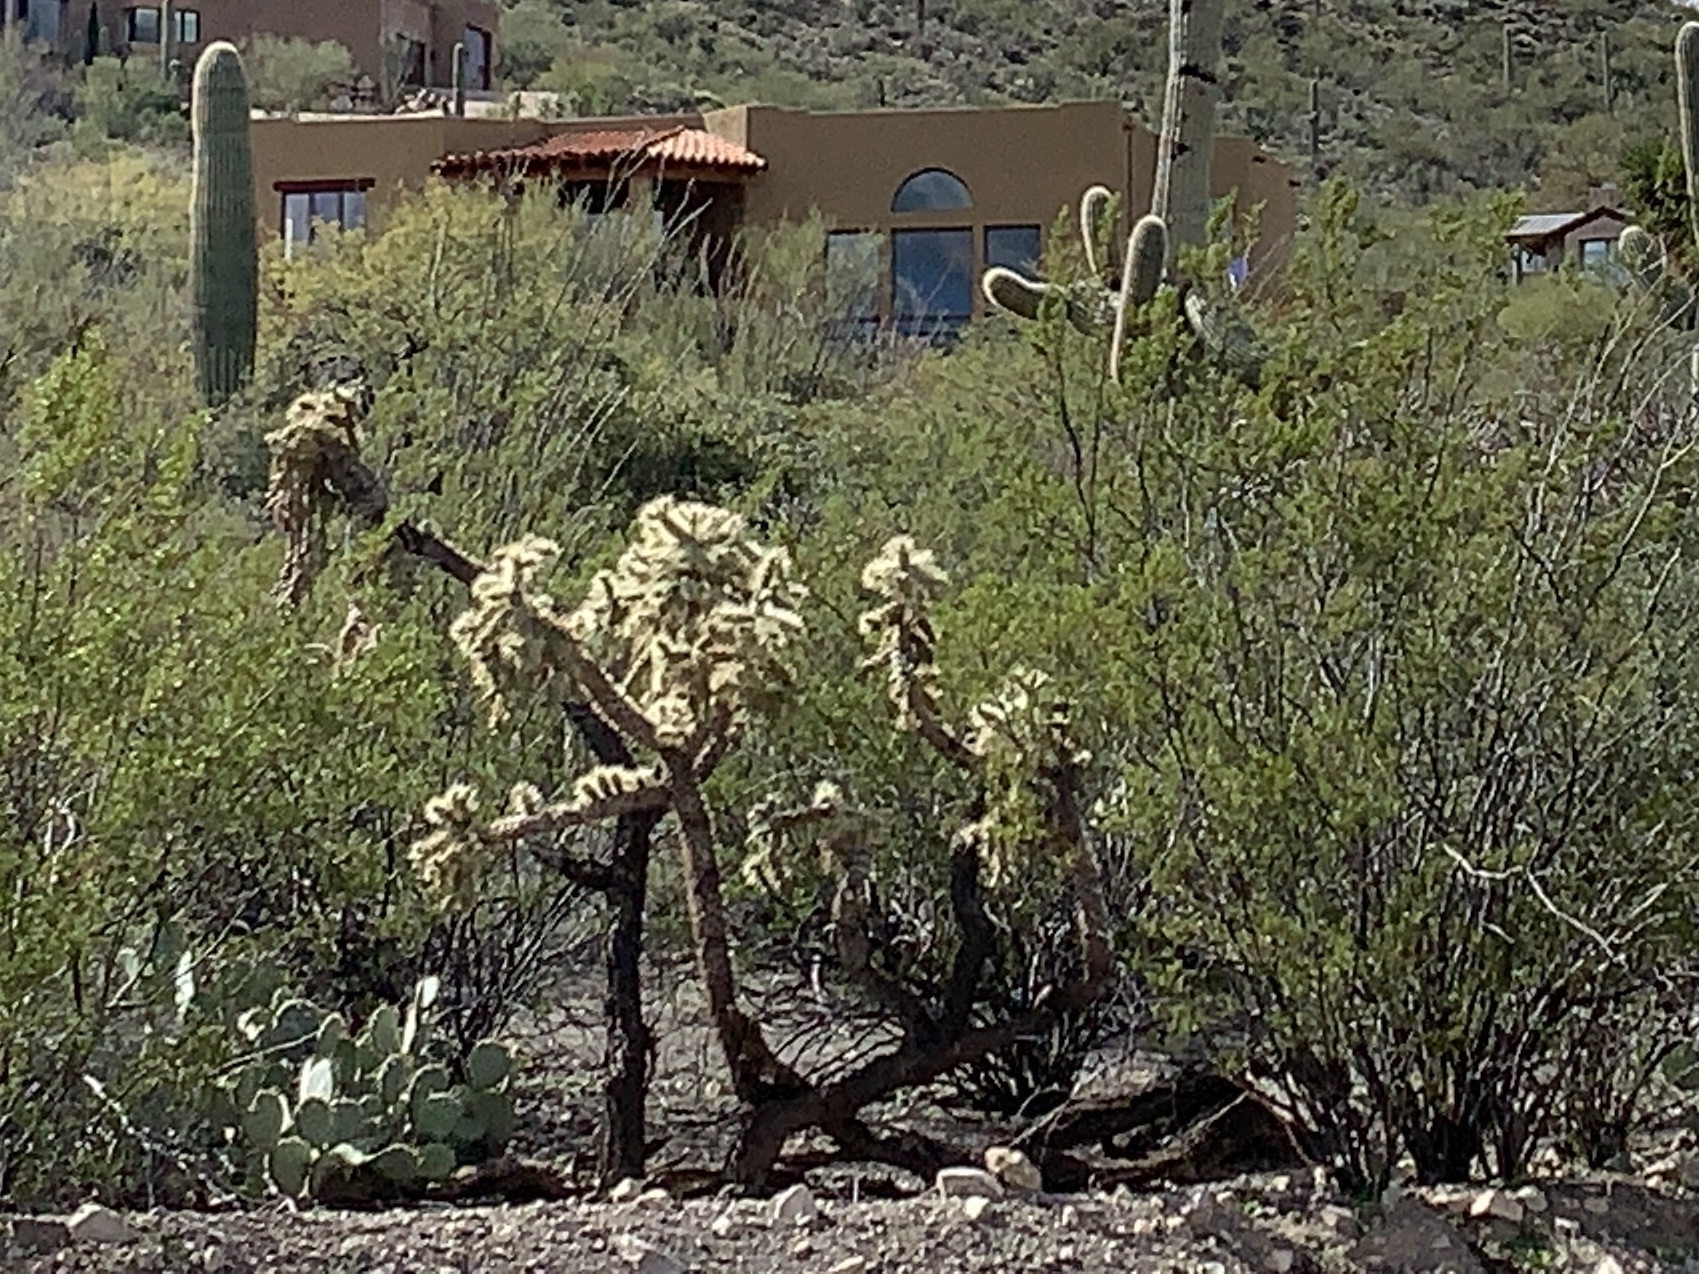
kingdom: Plantae
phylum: Tracheophyta
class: Magnoliopsida
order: Caryophyllales
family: Cactaceae
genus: Cylindropuntia
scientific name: Cylindropuntia fulgida
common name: Jumping cholla
